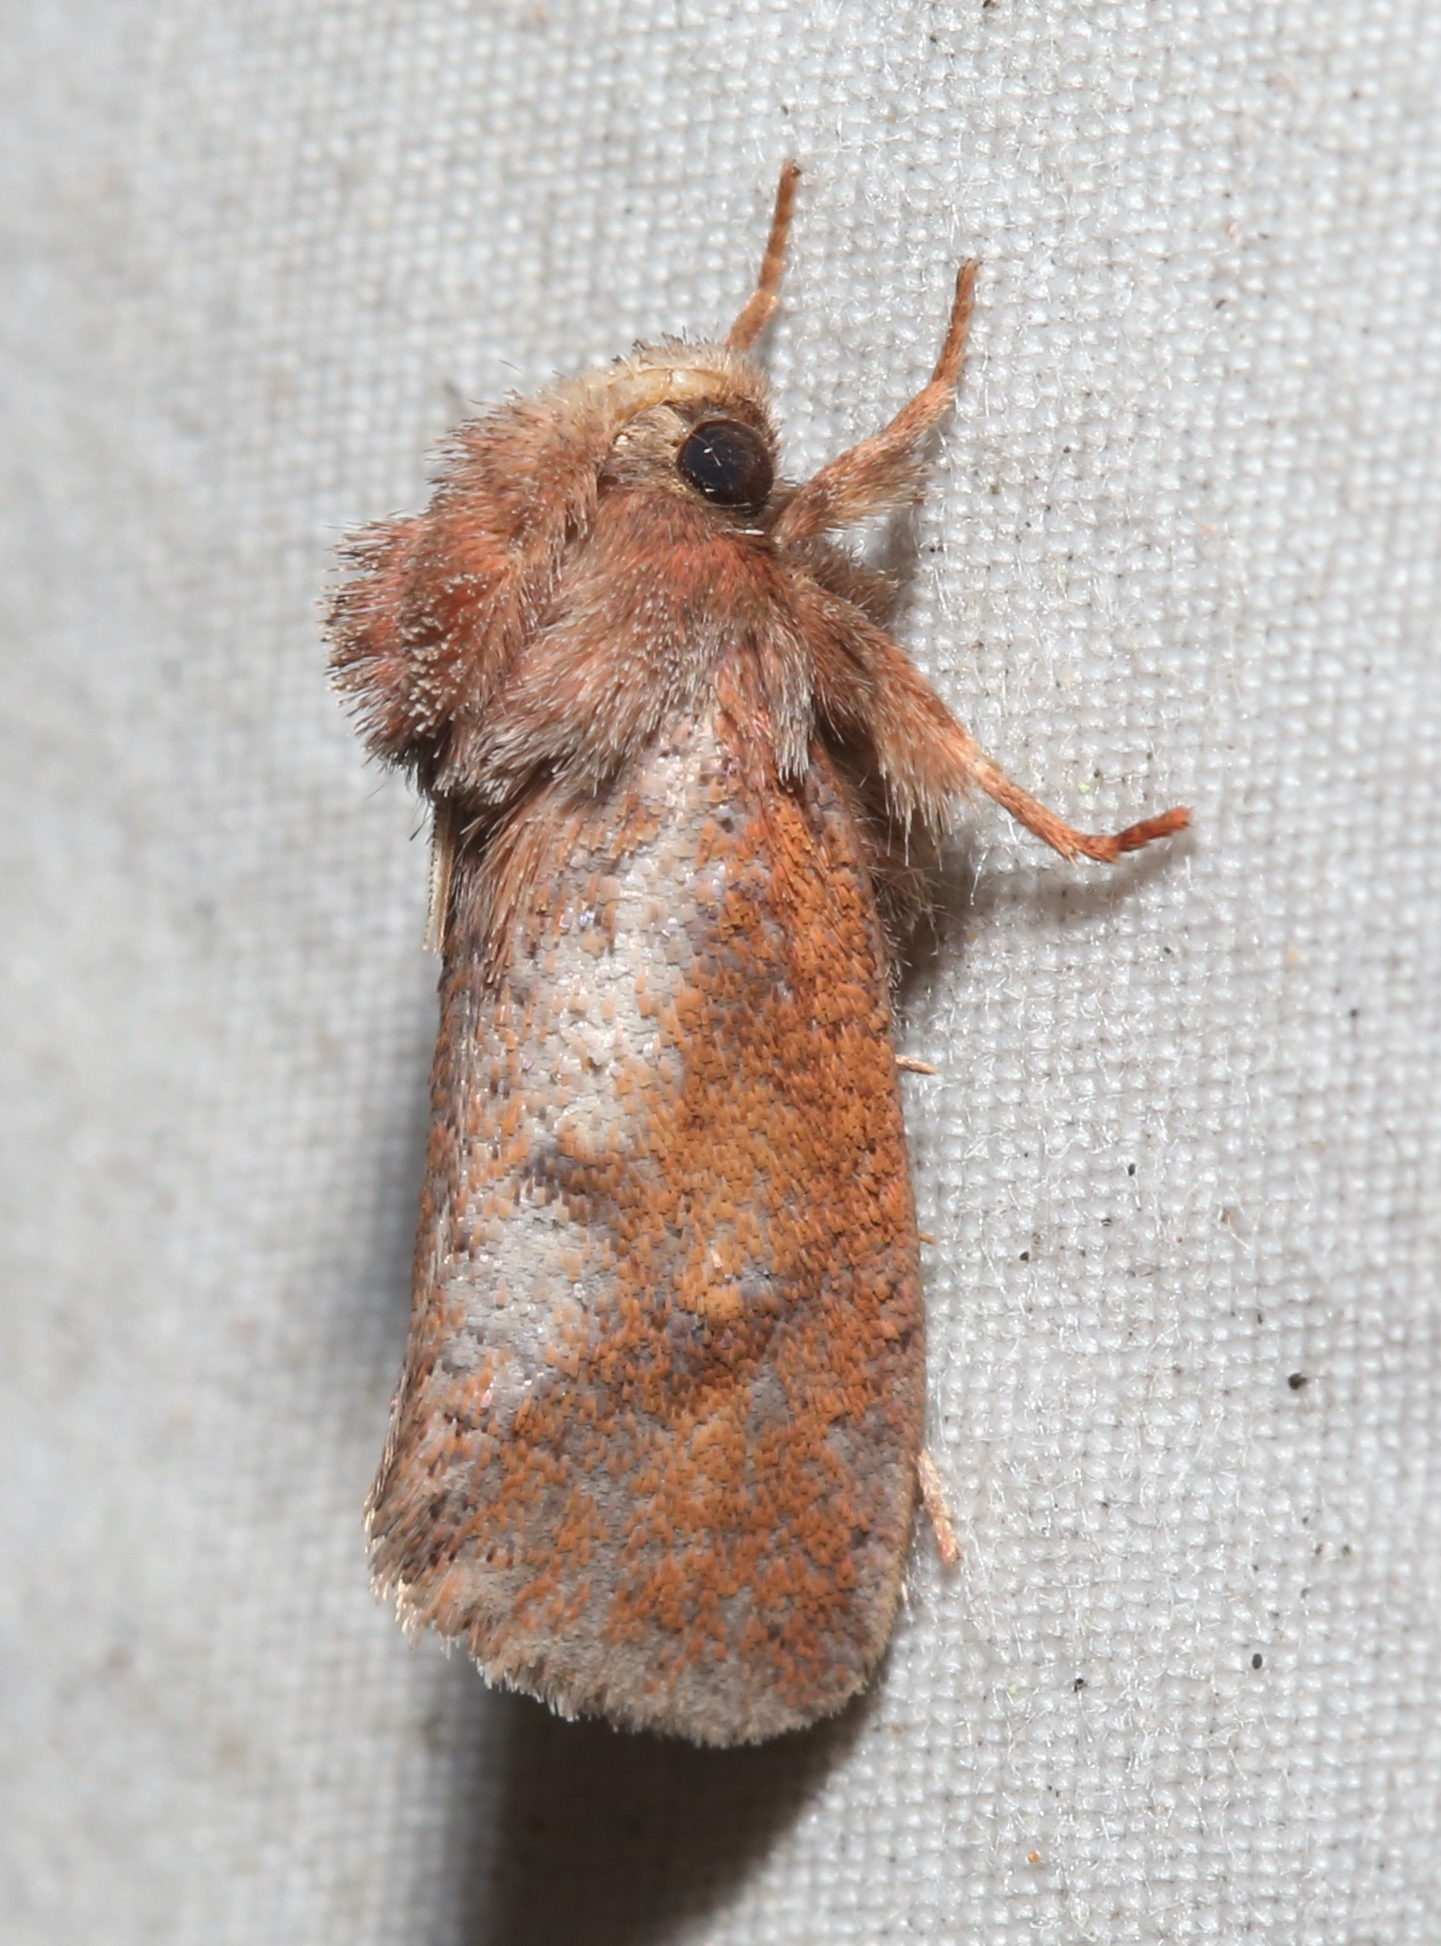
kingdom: Animalia
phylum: Arthropoda
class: Insecta
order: Lepidoptera
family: Tineidae
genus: Acrolophus
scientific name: Acrolophus plumifrontella
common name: Eastern grass tubeworm moth
